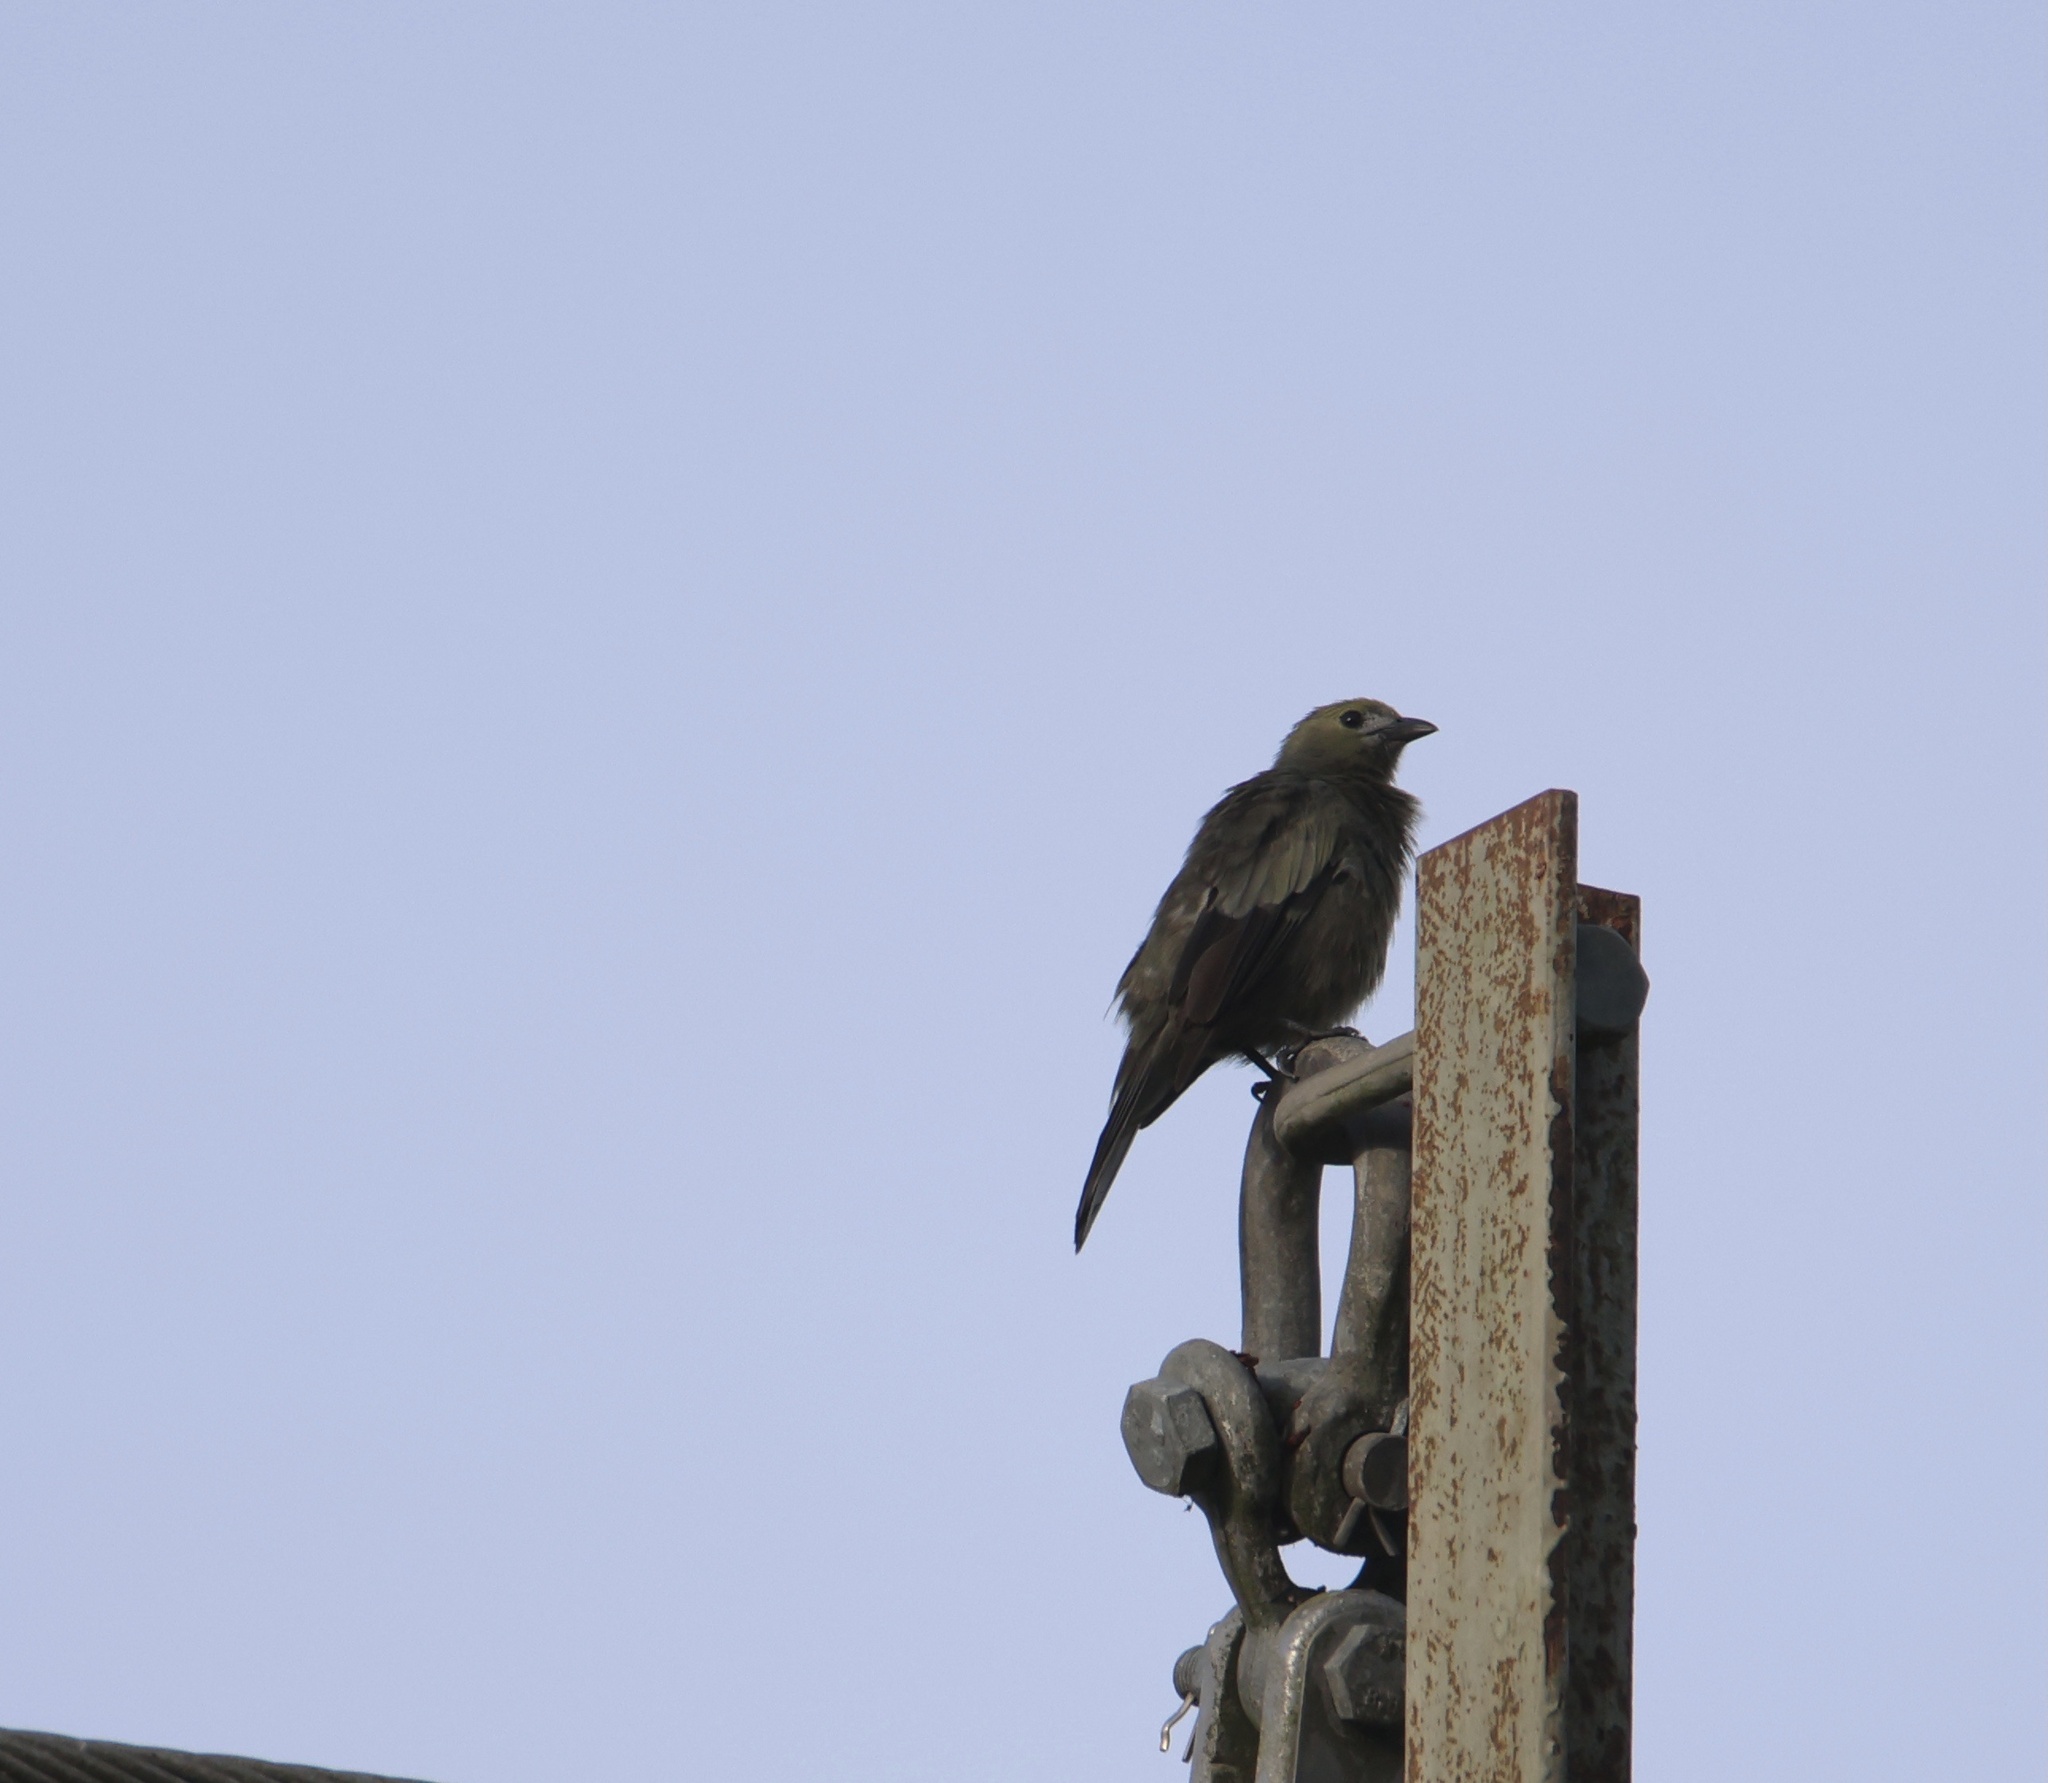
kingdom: Animalia
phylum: Chordata
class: Aves
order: Passeriformes
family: Thraupidae
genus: Thraupis
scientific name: Thraupis palmarum
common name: Palm tanager
